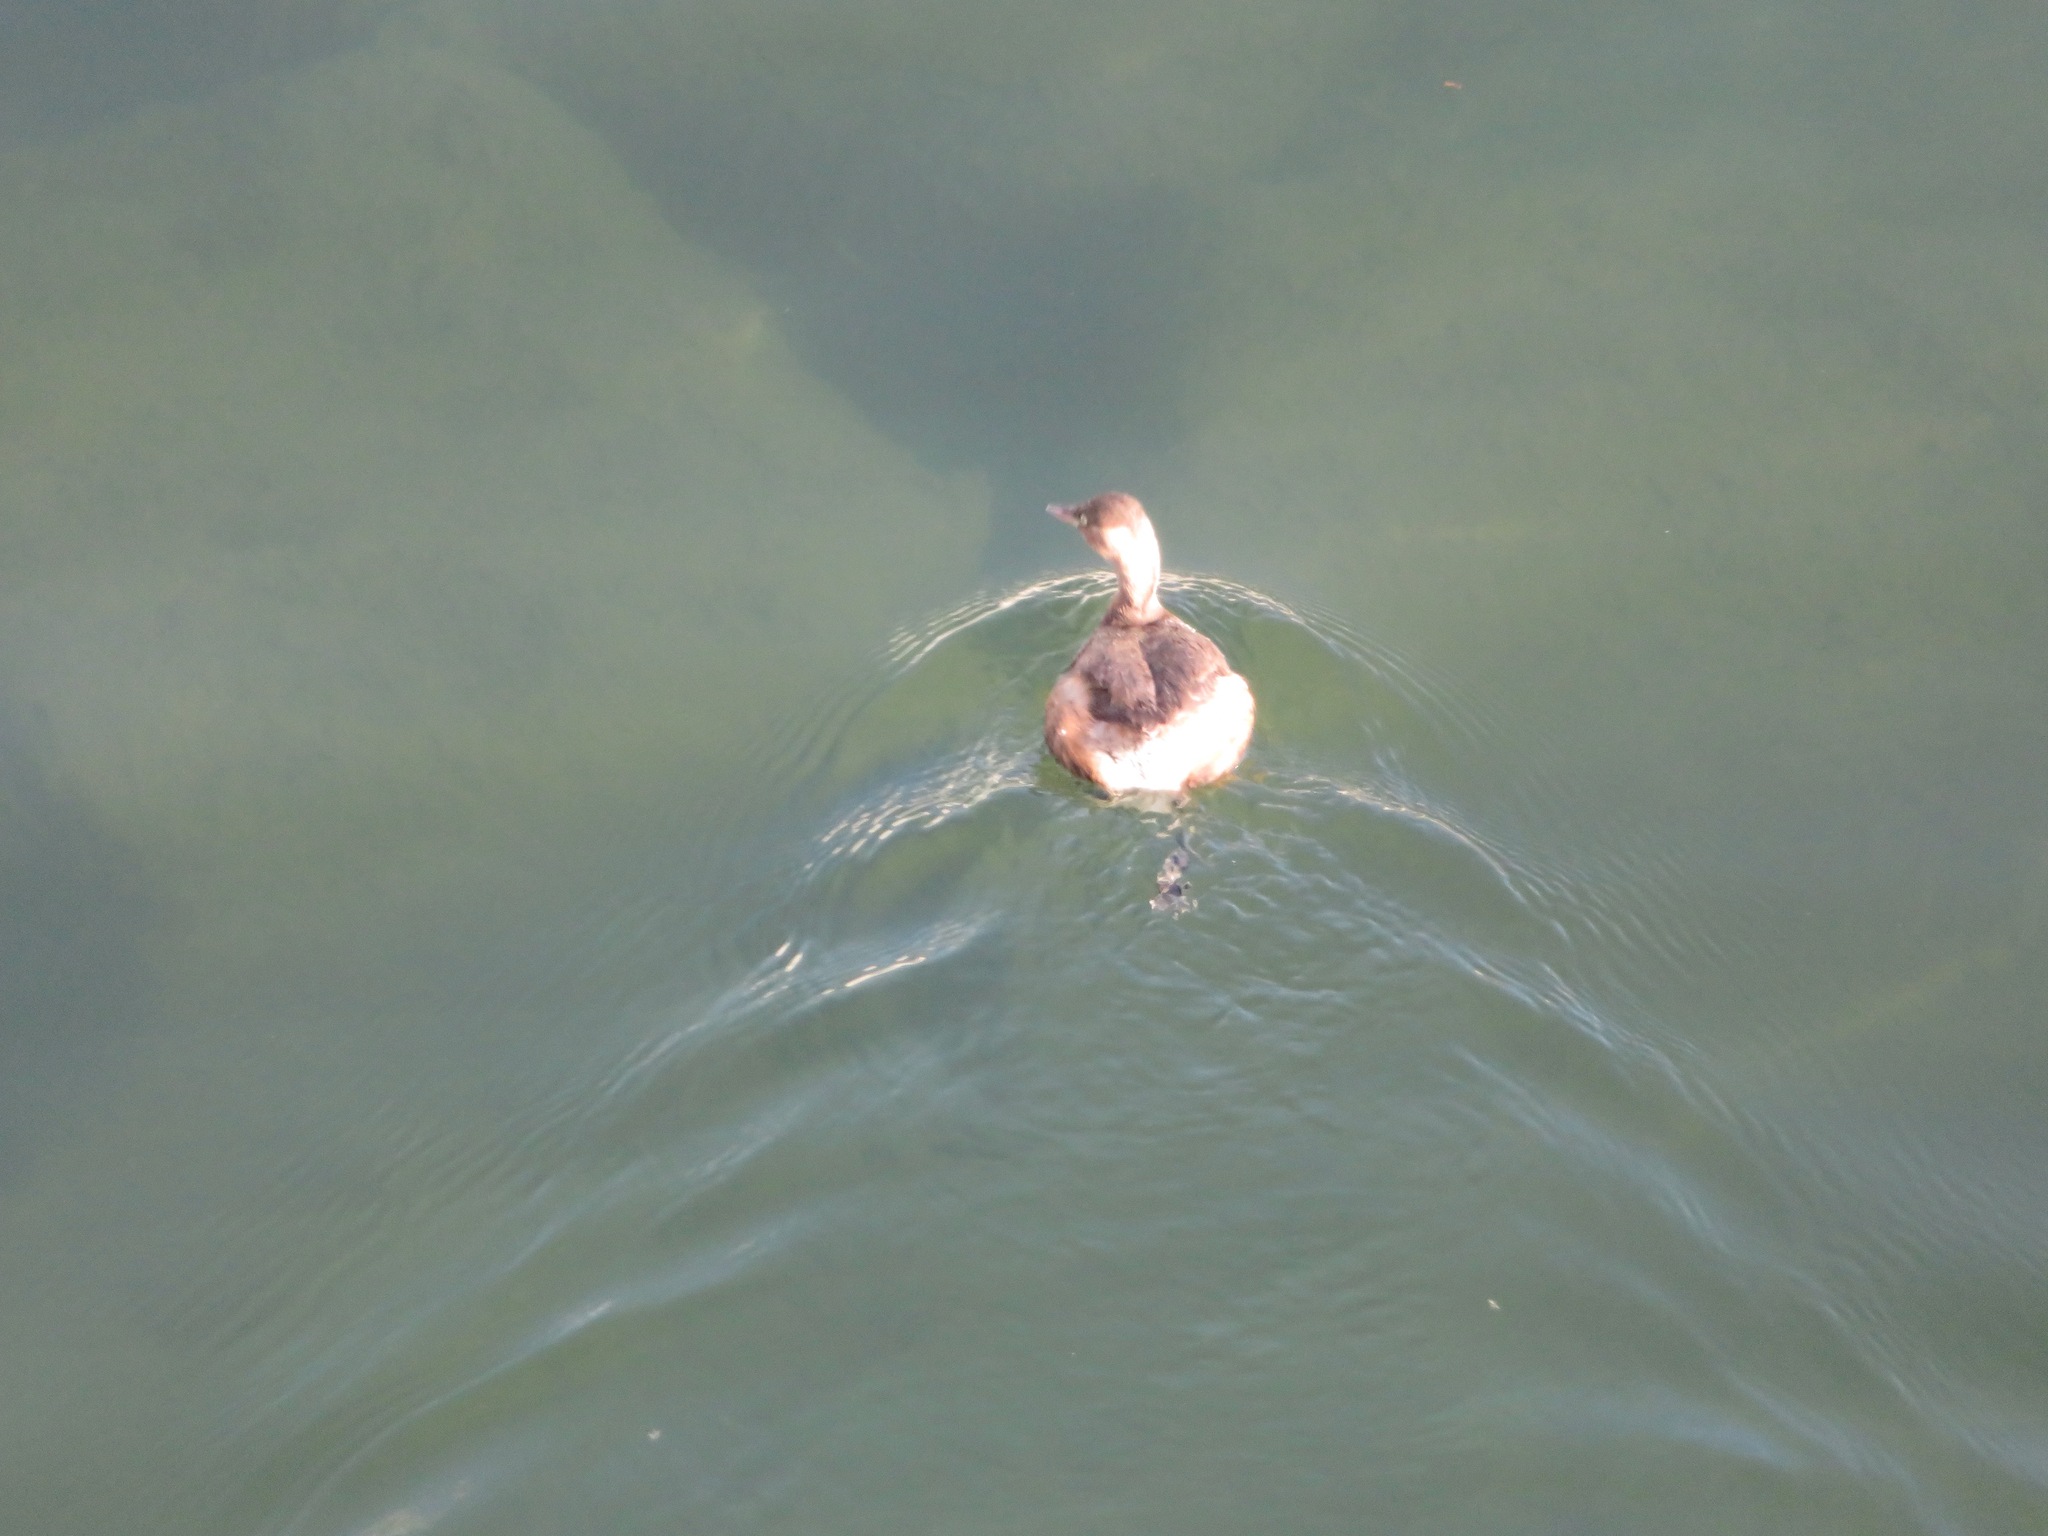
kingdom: Animalia
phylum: Chordata
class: Aves
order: Podicipediformes
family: Podicipedidae
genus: Tachybaptus
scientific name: Tachybaptus ruficollis
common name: Little grebe
